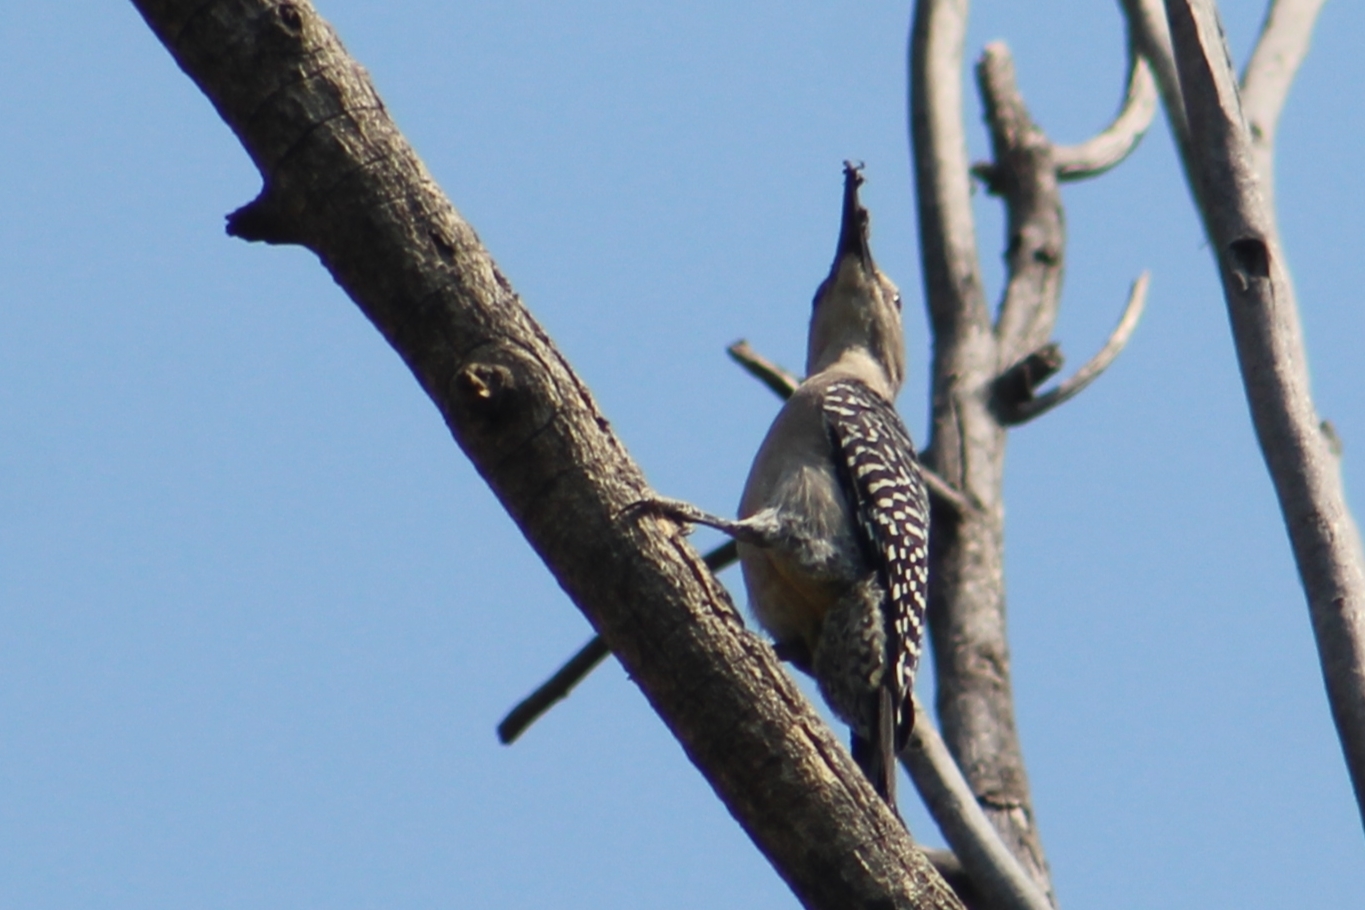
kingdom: Animalia
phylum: Chordata
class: Aves
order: Piciformes
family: Picidae
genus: Melanerpes
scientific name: Melanerpes aurifrons
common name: Golden-fronted woodpecker
